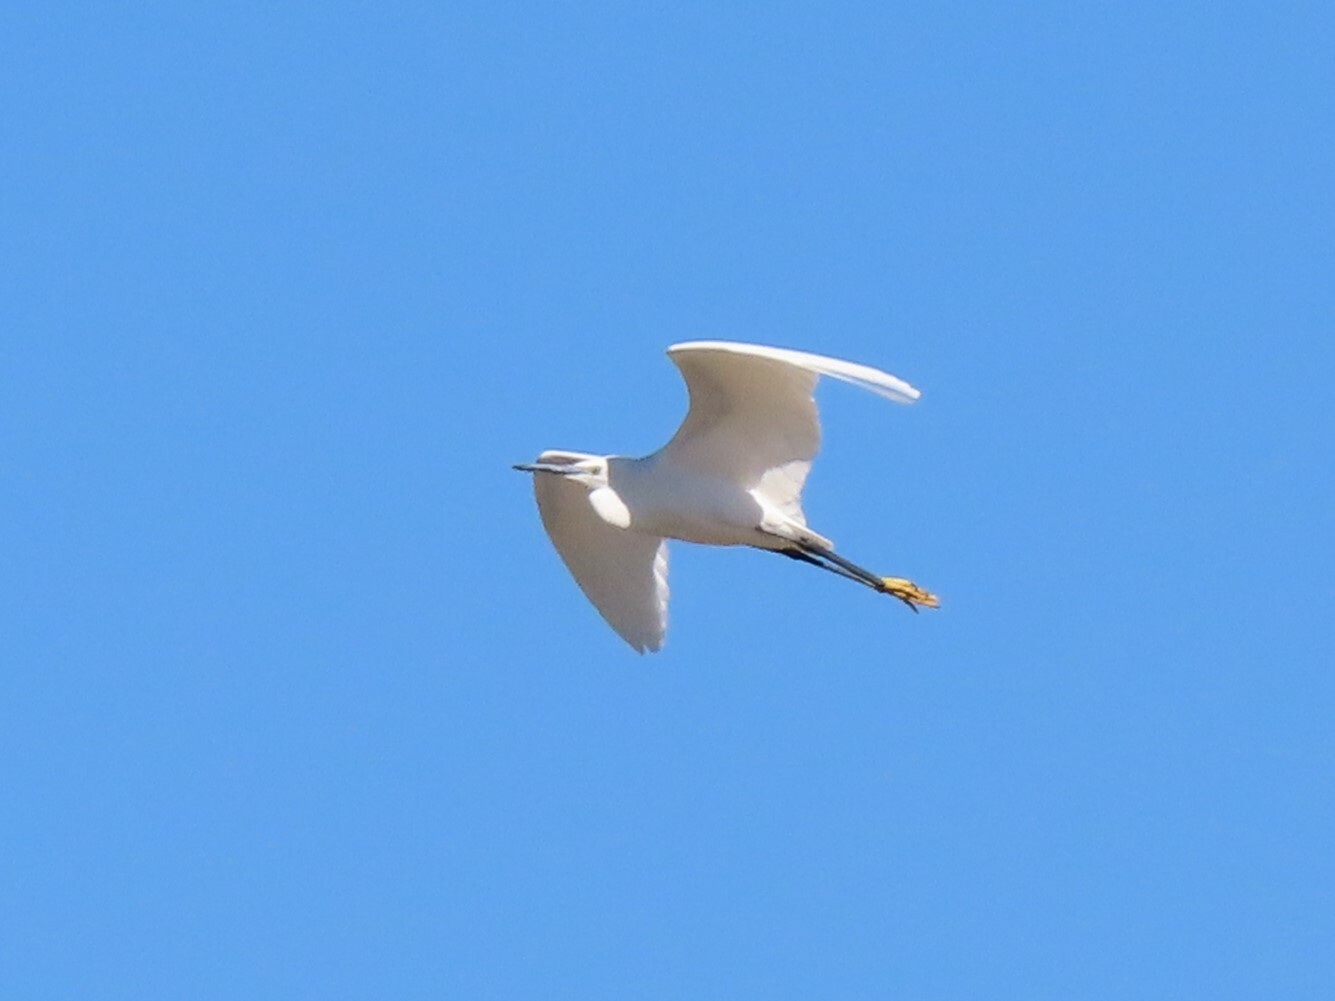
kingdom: Animalia
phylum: Chordata
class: Aves
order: Pelecaniformes
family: Ardeidae
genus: Egretta
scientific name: Egretta garzetta
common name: Little egret
